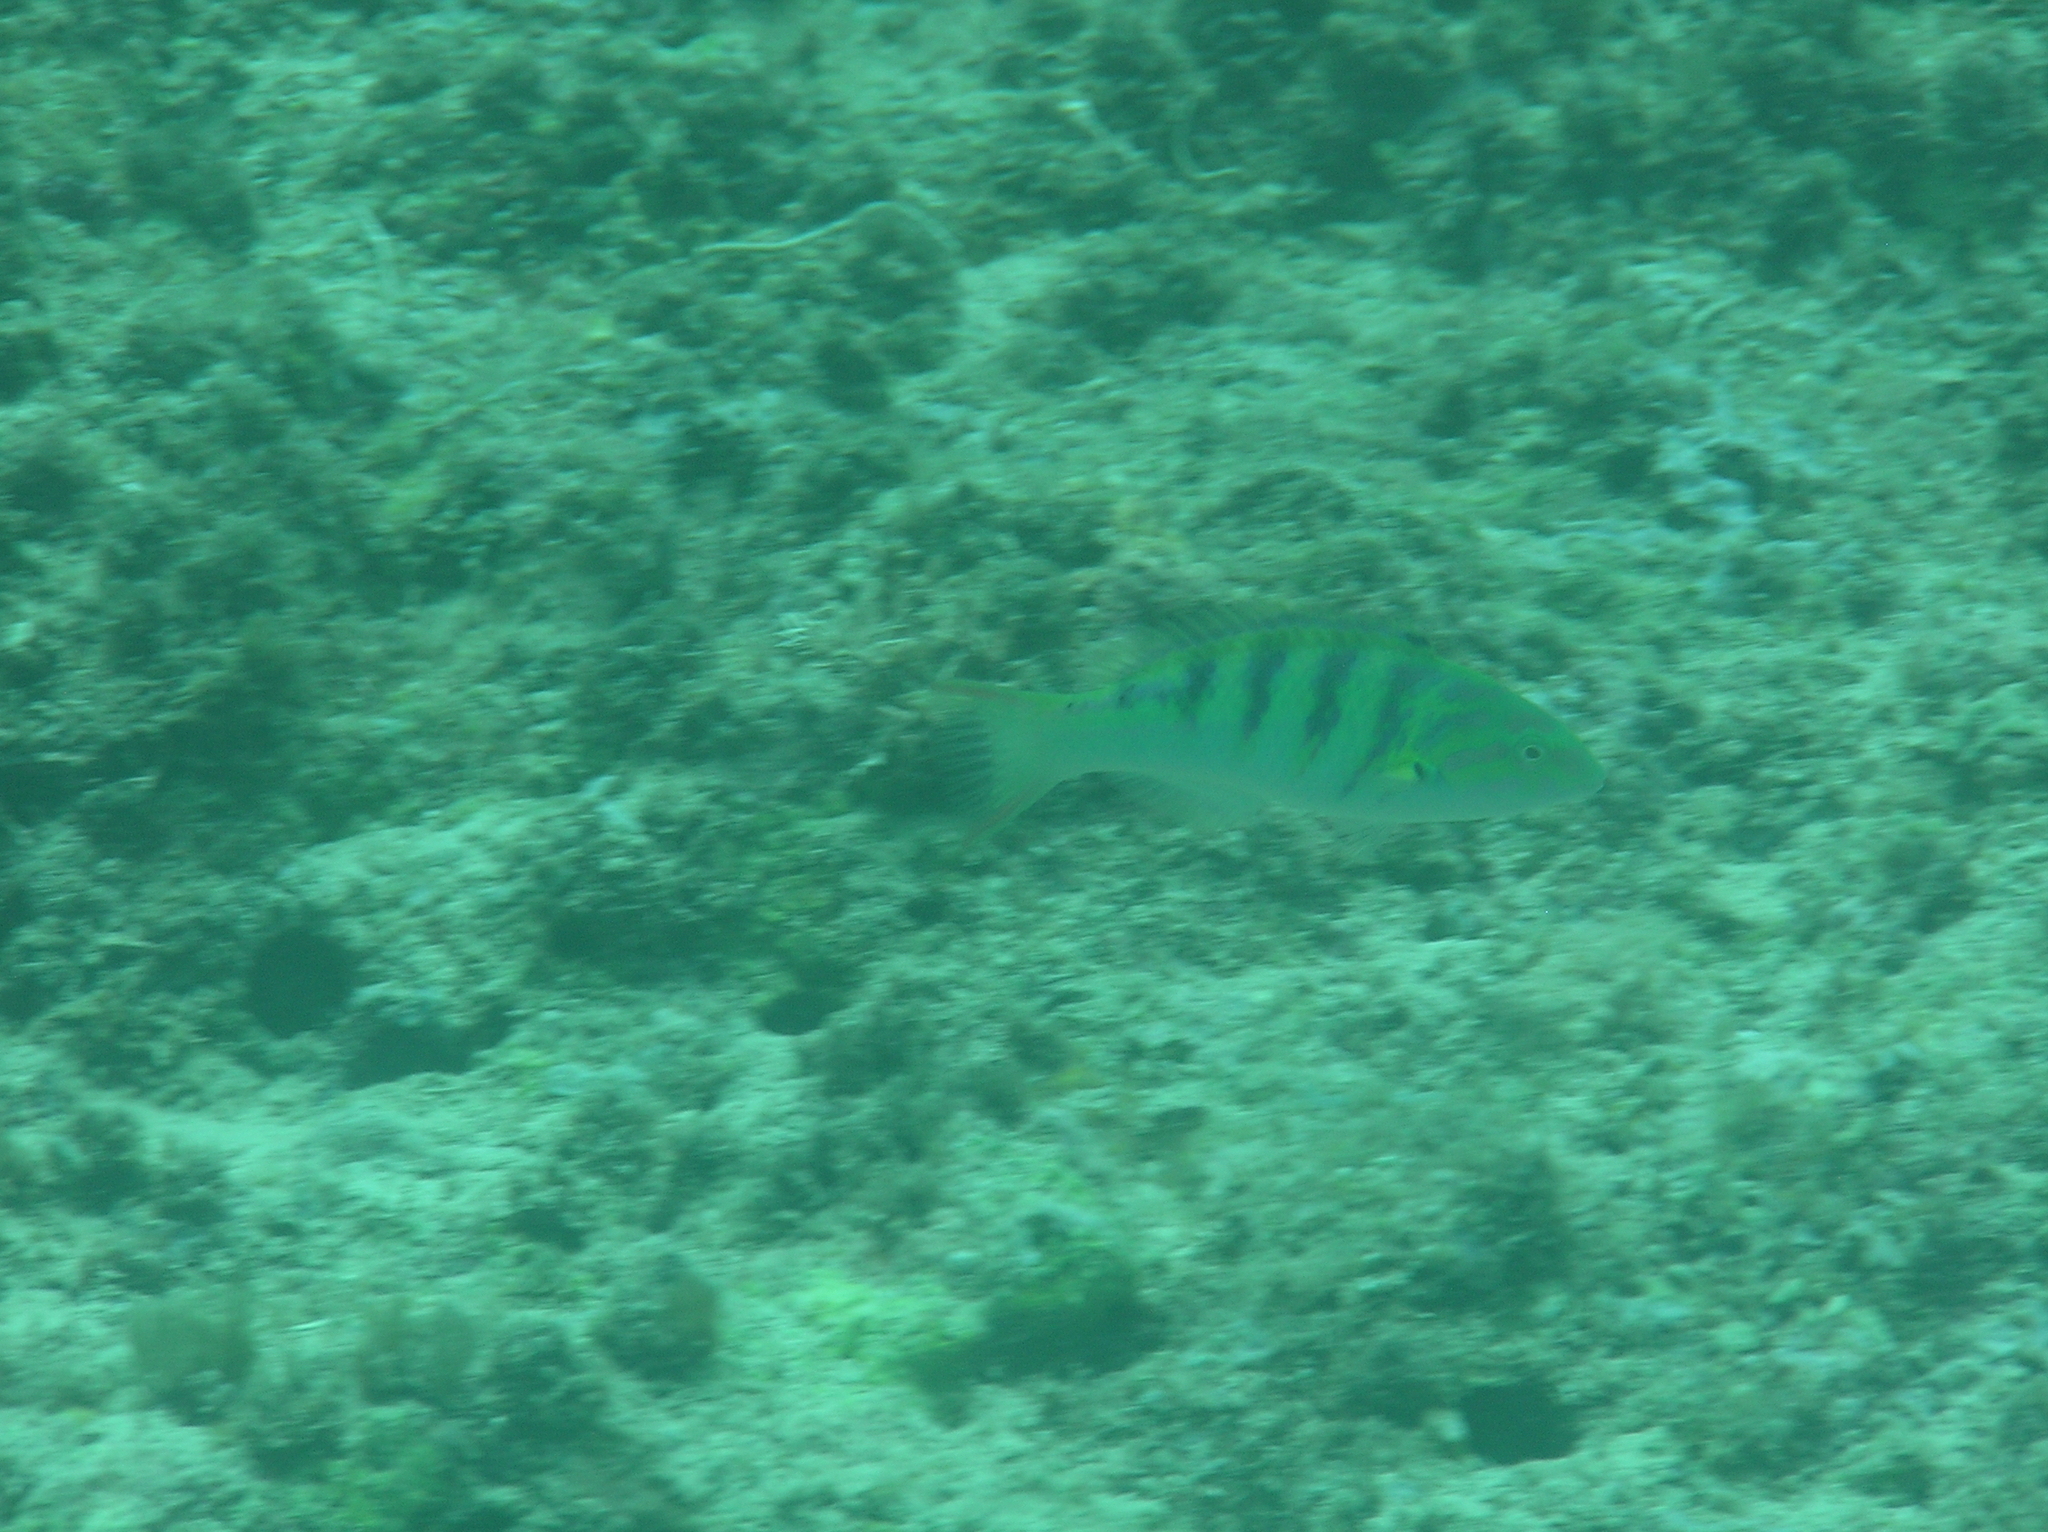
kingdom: Animalia
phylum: Chordata
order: Perciformes
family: Labridae
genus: Thalassoma
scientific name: Thalassoma hardwicke
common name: Sixbar wrasse
